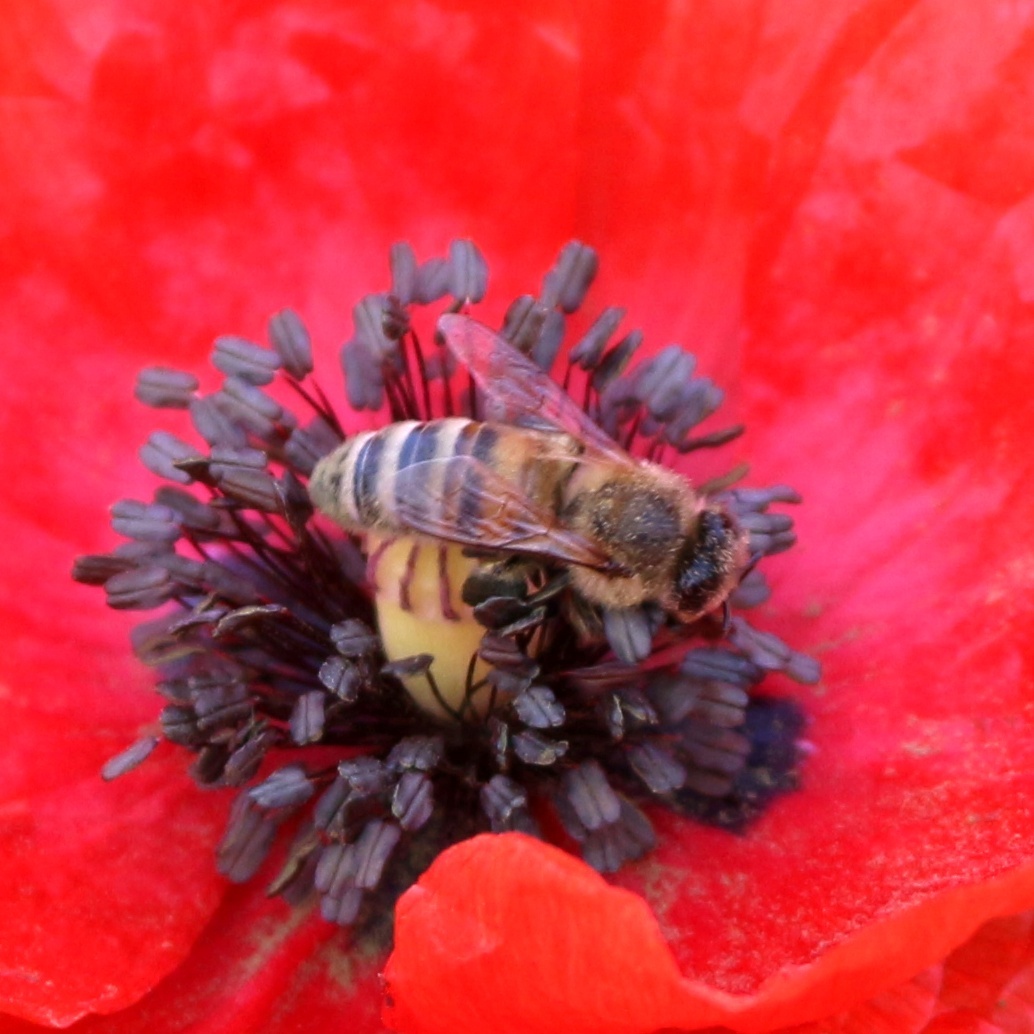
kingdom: Animalia
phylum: Arthropoda
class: Insecta
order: Hymenoptera
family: Apidae
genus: Apis
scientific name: Apis mellifera
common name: Honey bee
